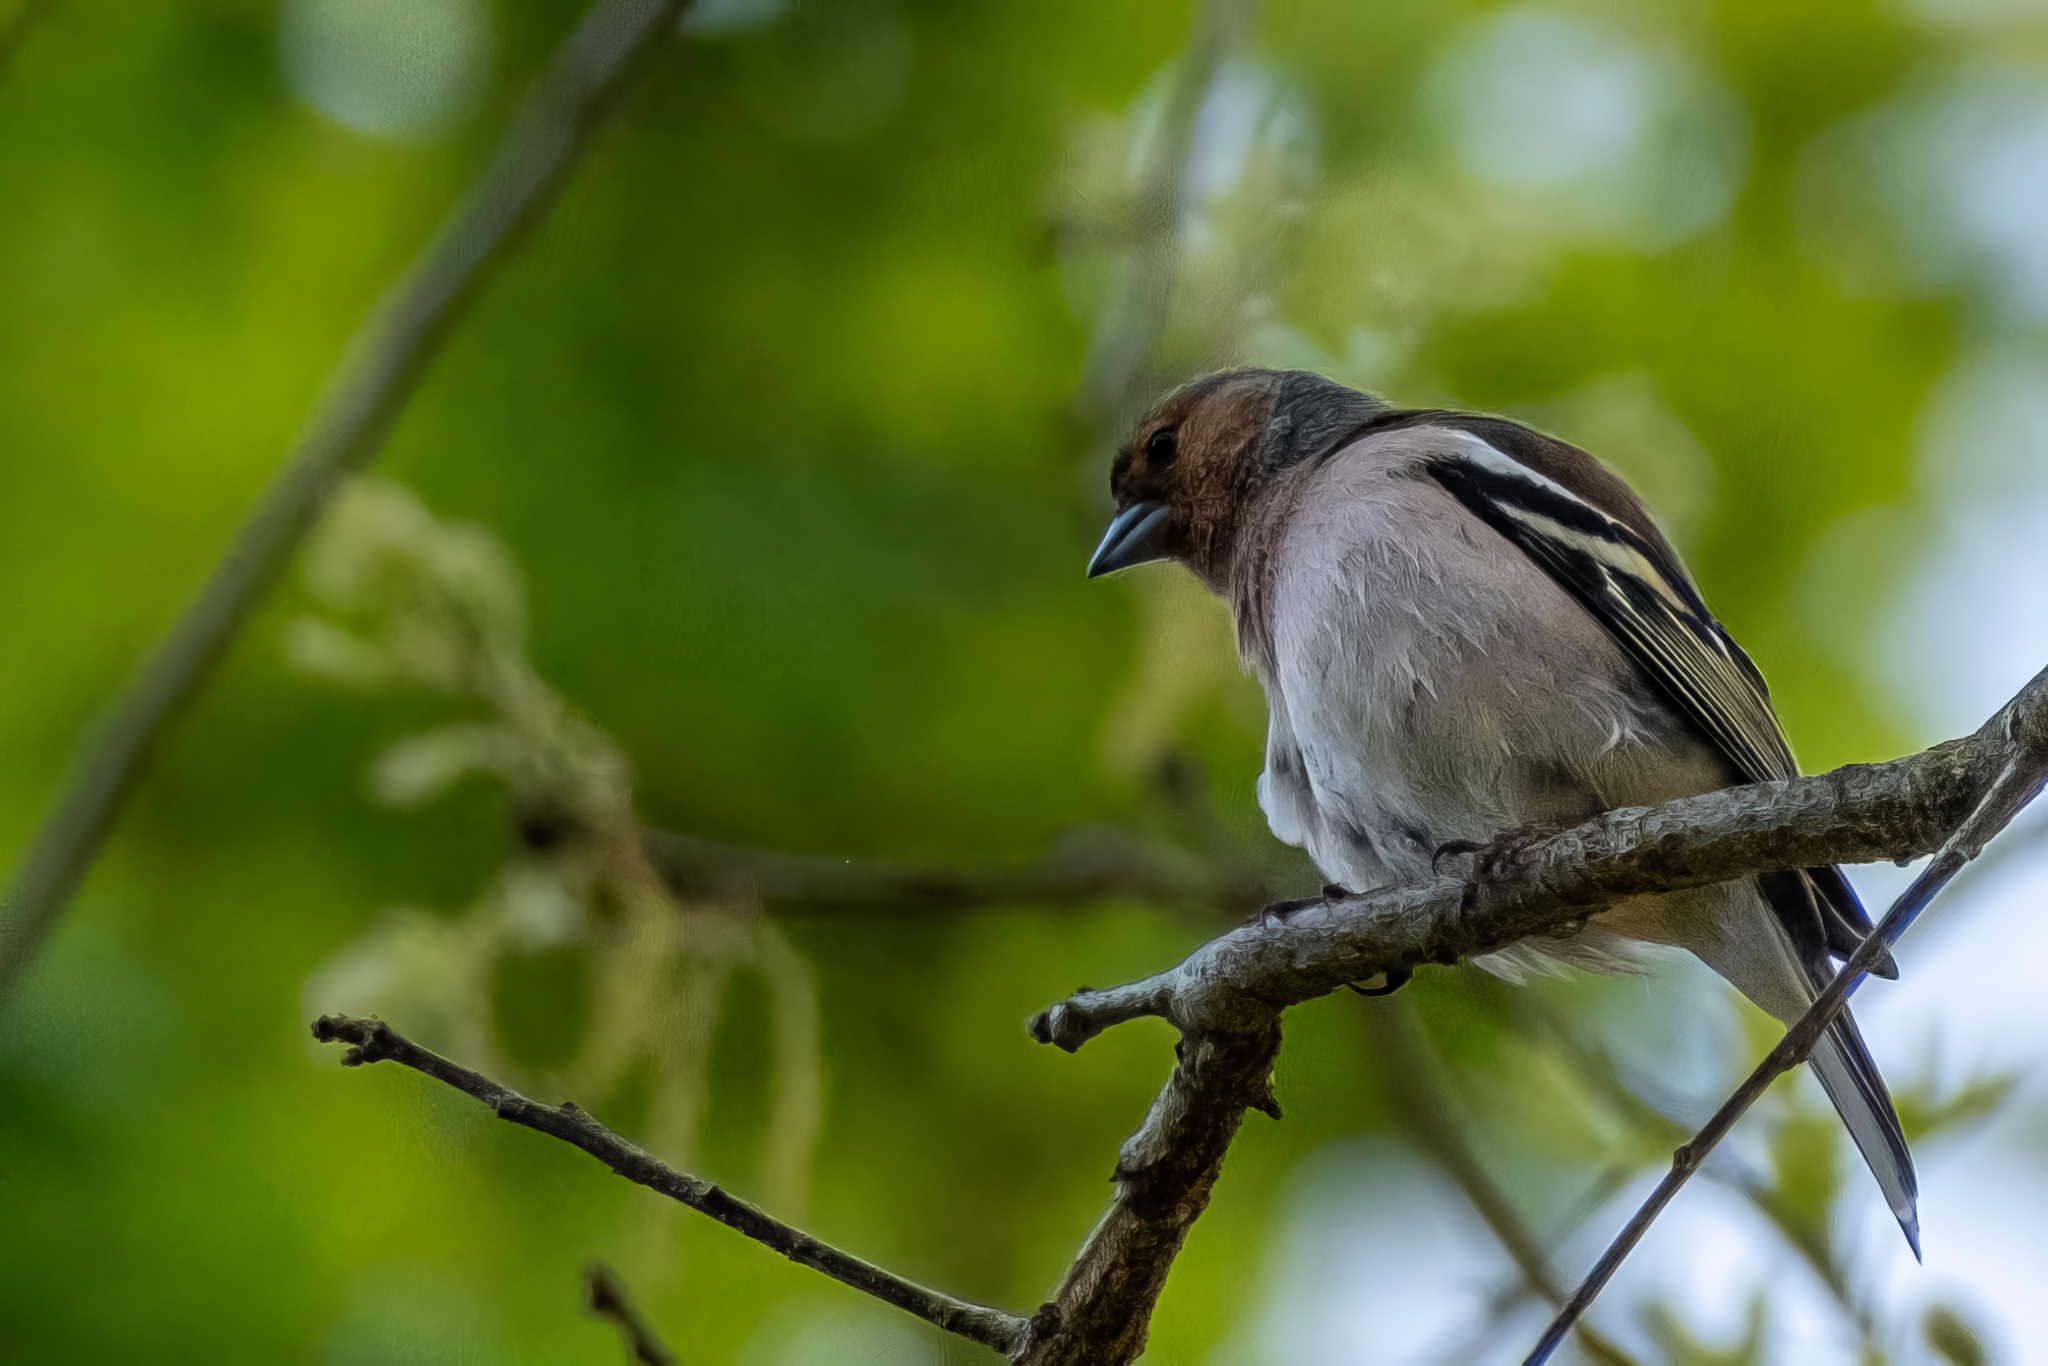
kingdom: Animalia
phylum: Chordata
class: Aves
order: Passeriformes
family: Fringillidae
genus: Fringilla
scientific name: Fringilla coelebs
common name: Common chaffinch
